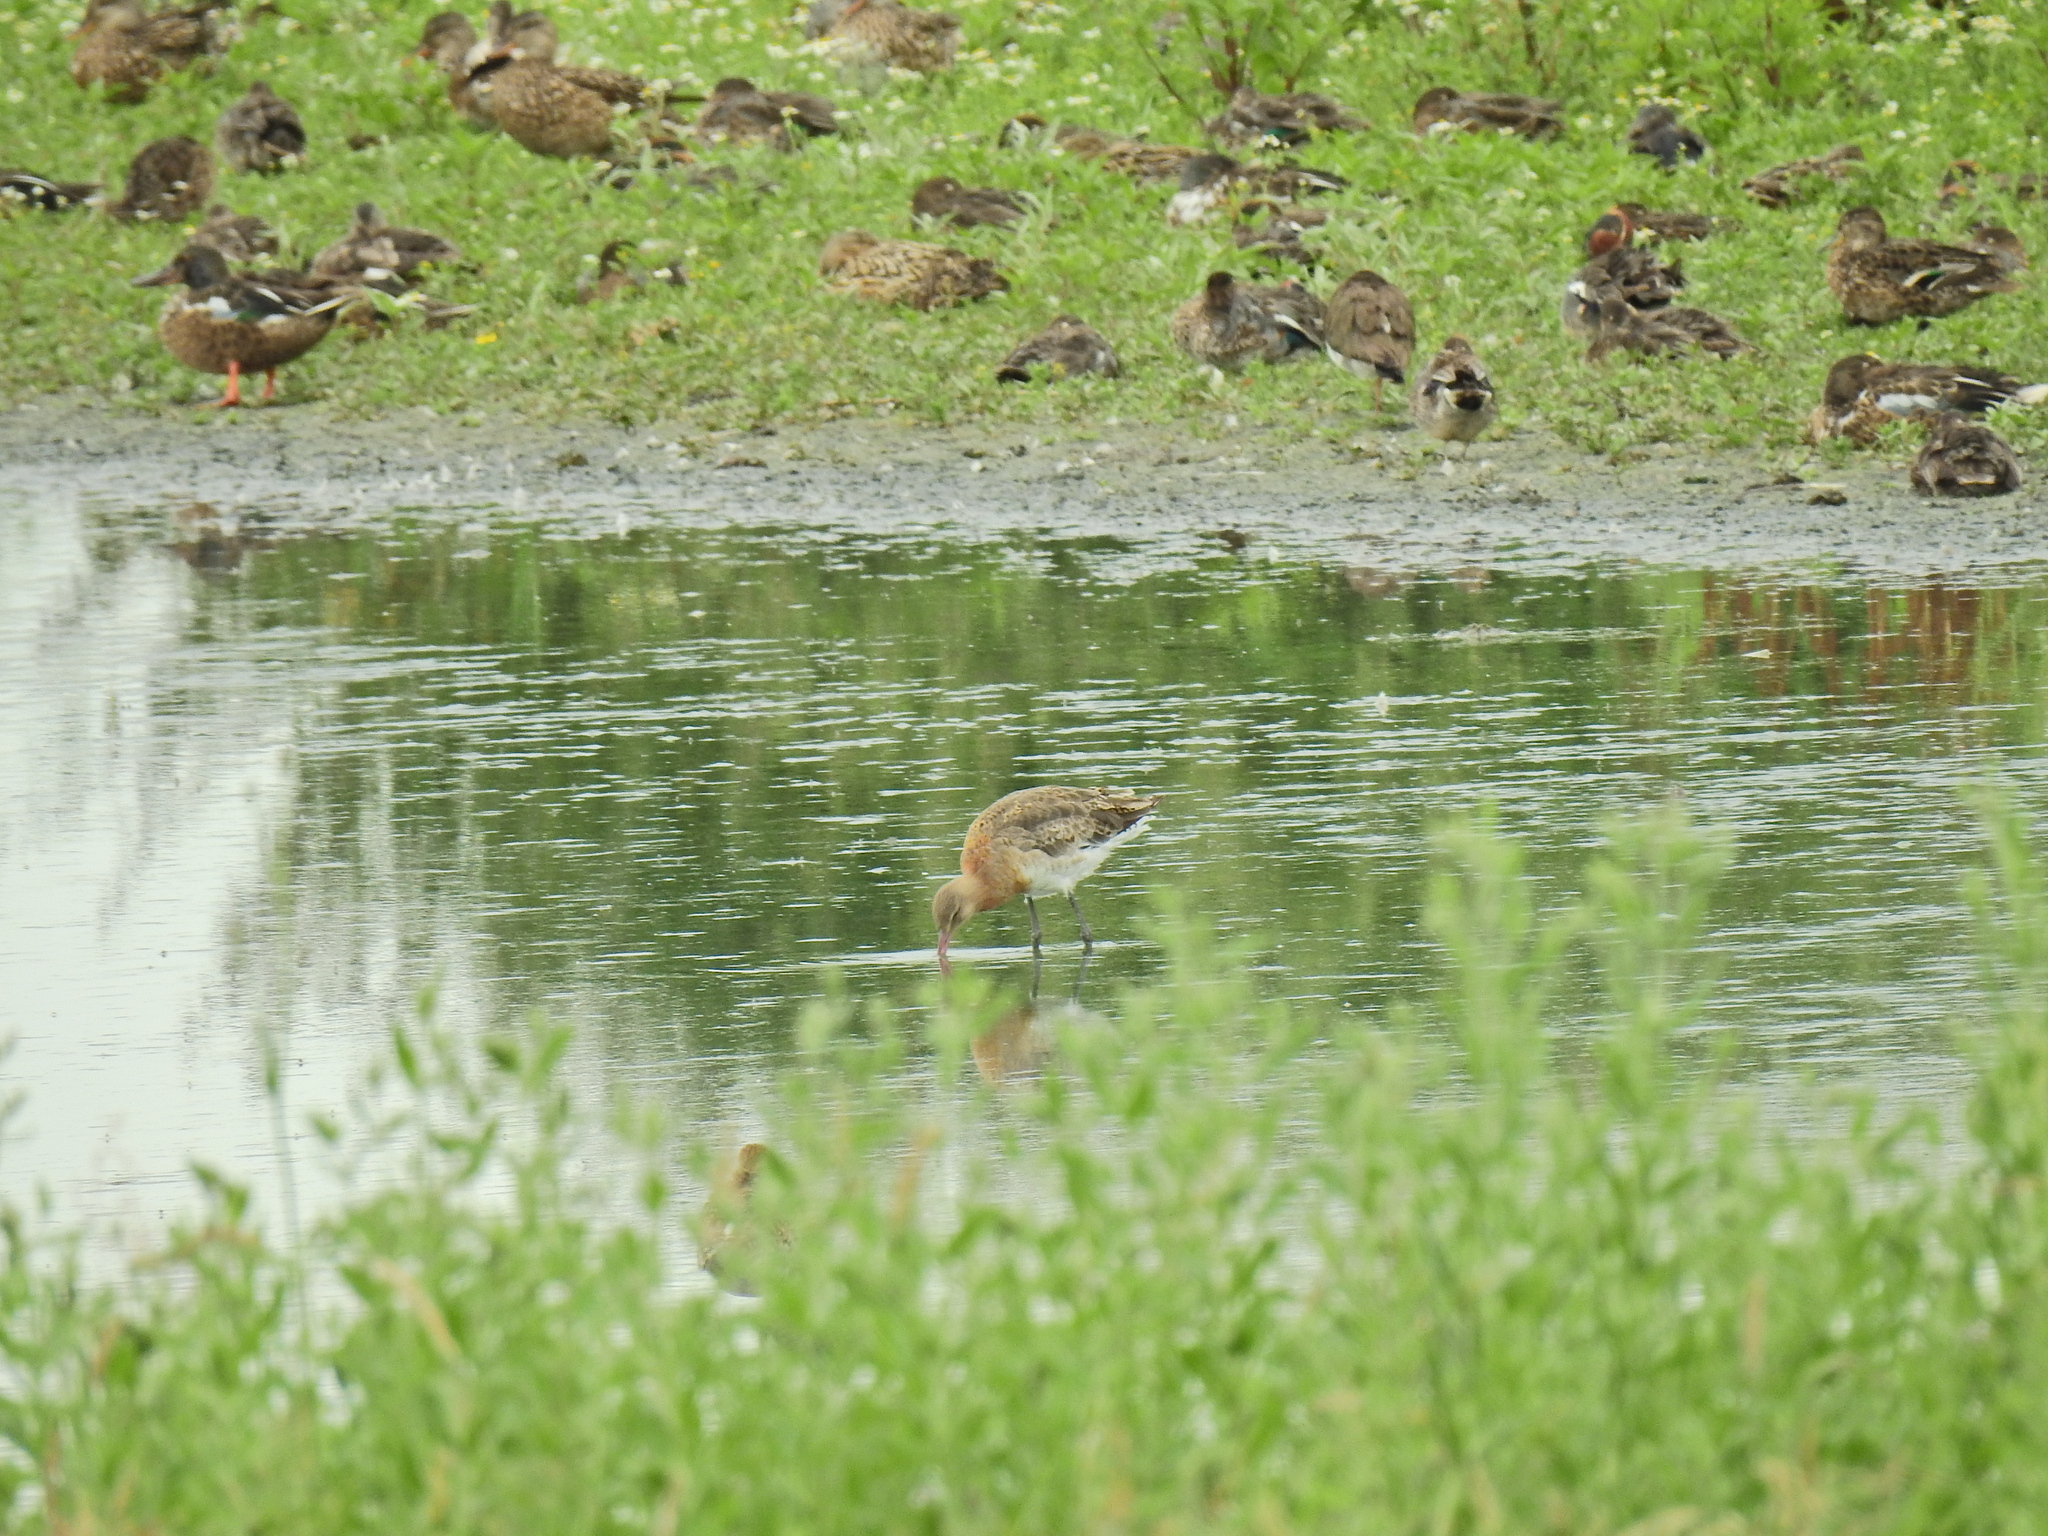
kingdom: Animalia
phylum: Chordata
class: Aves
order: Charadriiformes
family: Scolopacidae
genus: Limosa
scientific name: Limosa limosa
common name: Black-tailed godwit
